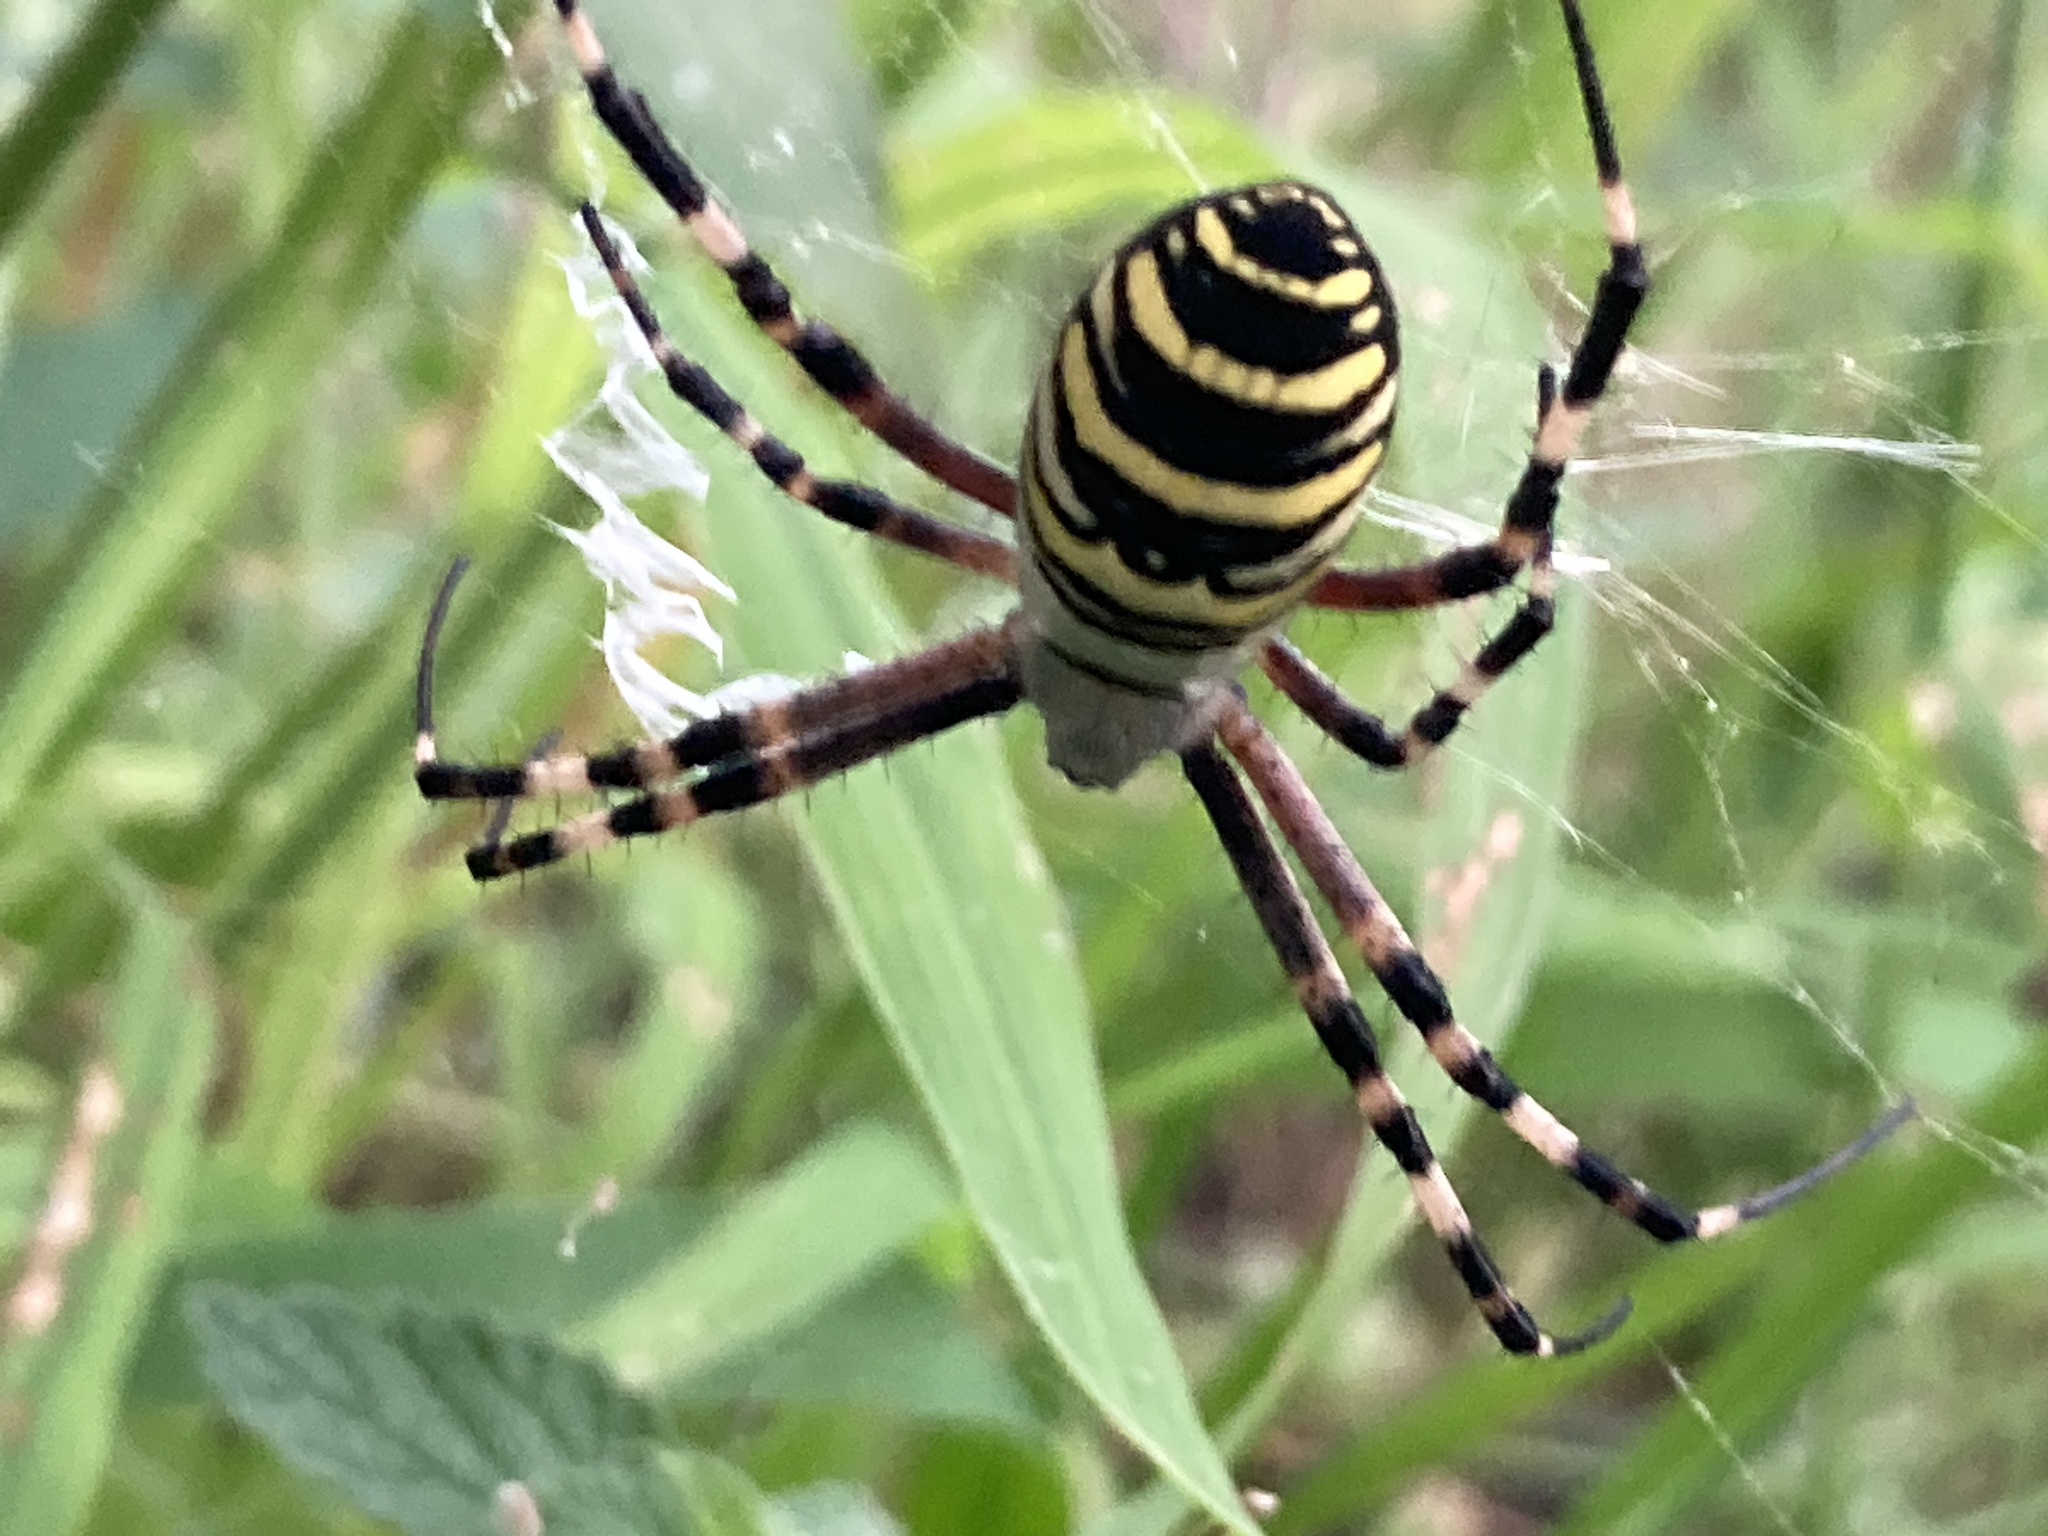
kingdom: Animalia
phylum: Arthropoda
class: Arachnida
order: Araneae
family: Araneidae
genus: Argiope
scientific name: Argiope bruennichi
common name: Wasp spider
